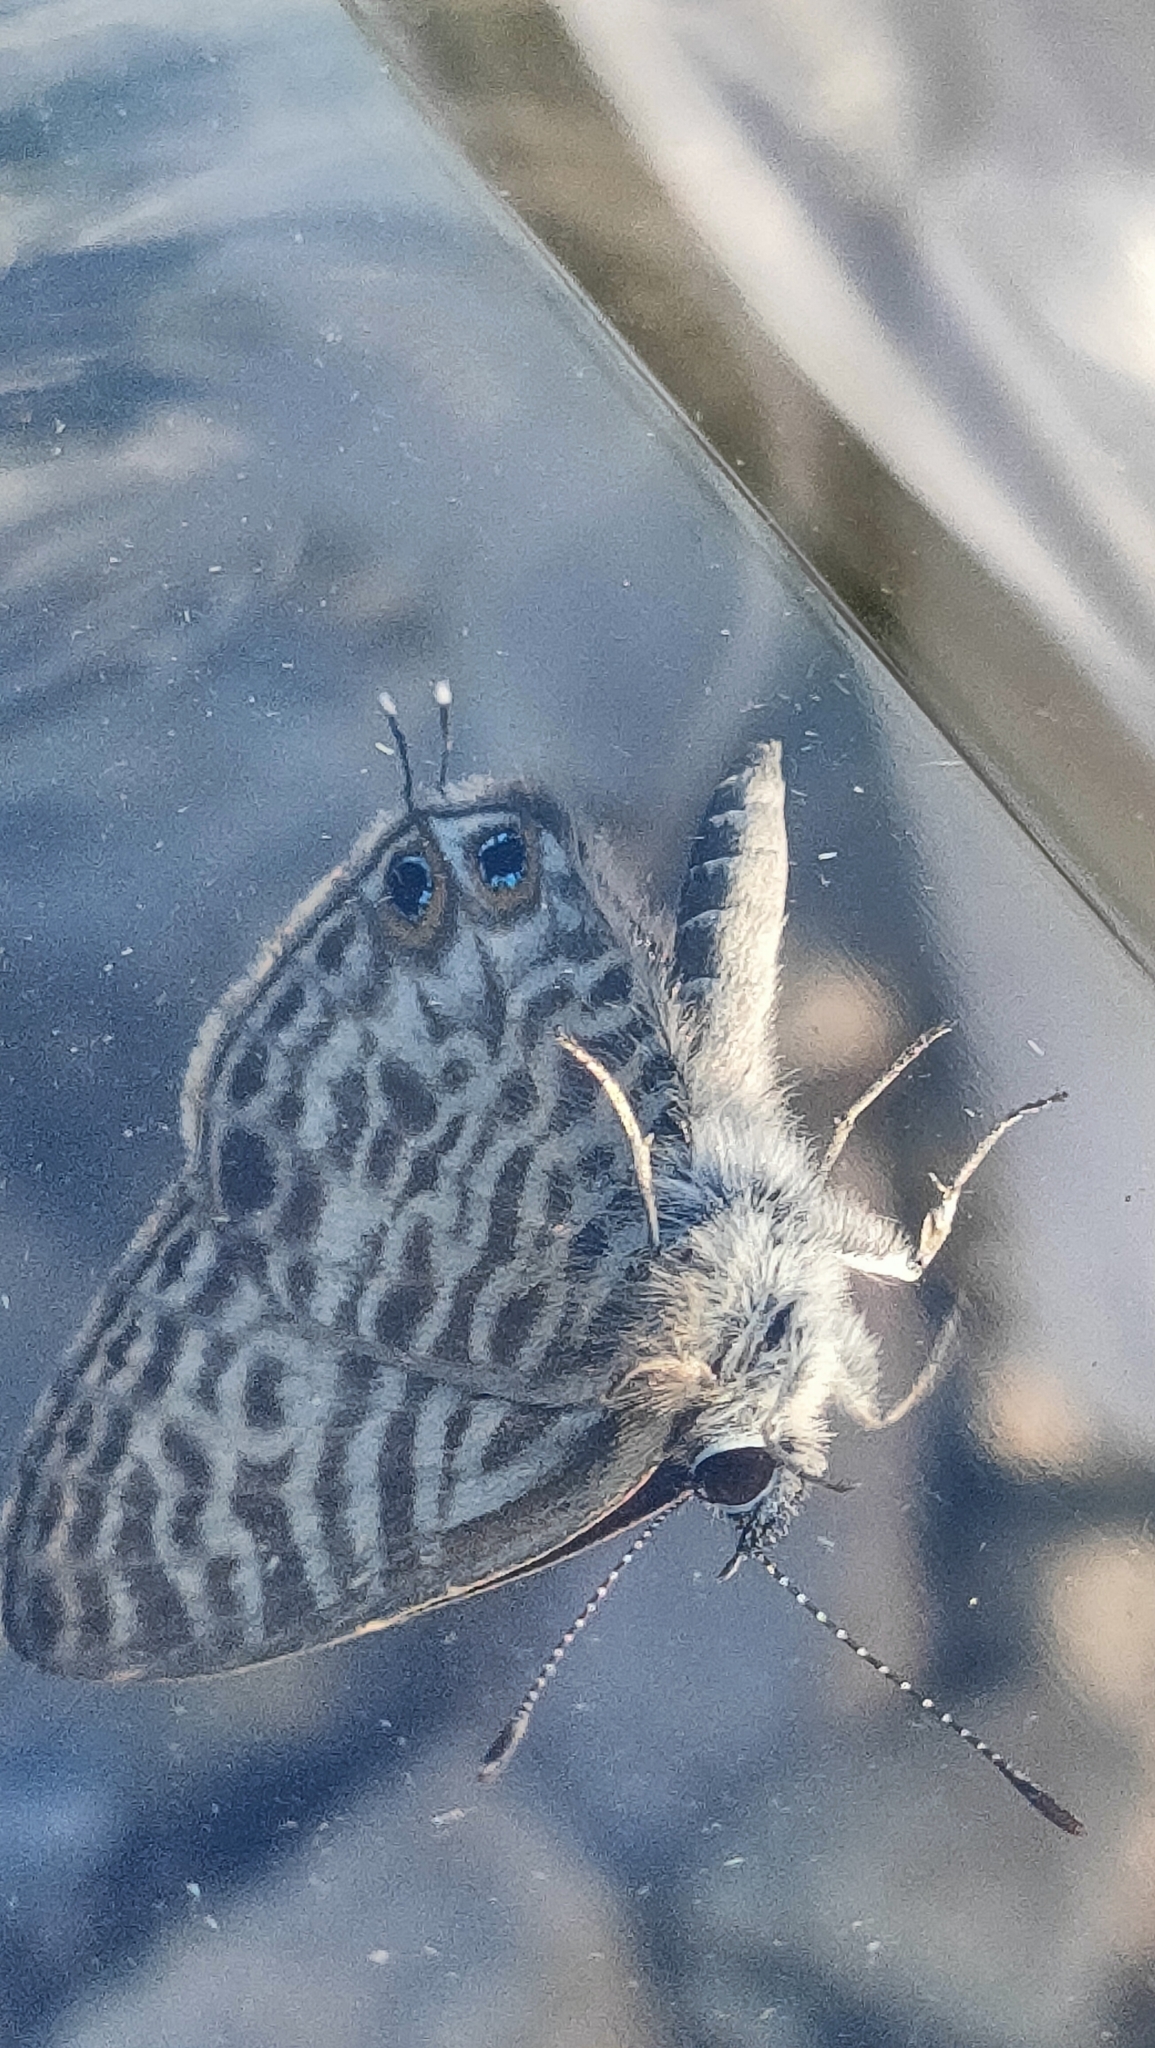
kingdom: Animalia
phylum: Arthropoda
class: Insecta
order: Lepidoptera
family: Lycaenidae
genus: Leptotes
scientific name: Leptotes pirithous
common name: Lang's short-tailed blue
